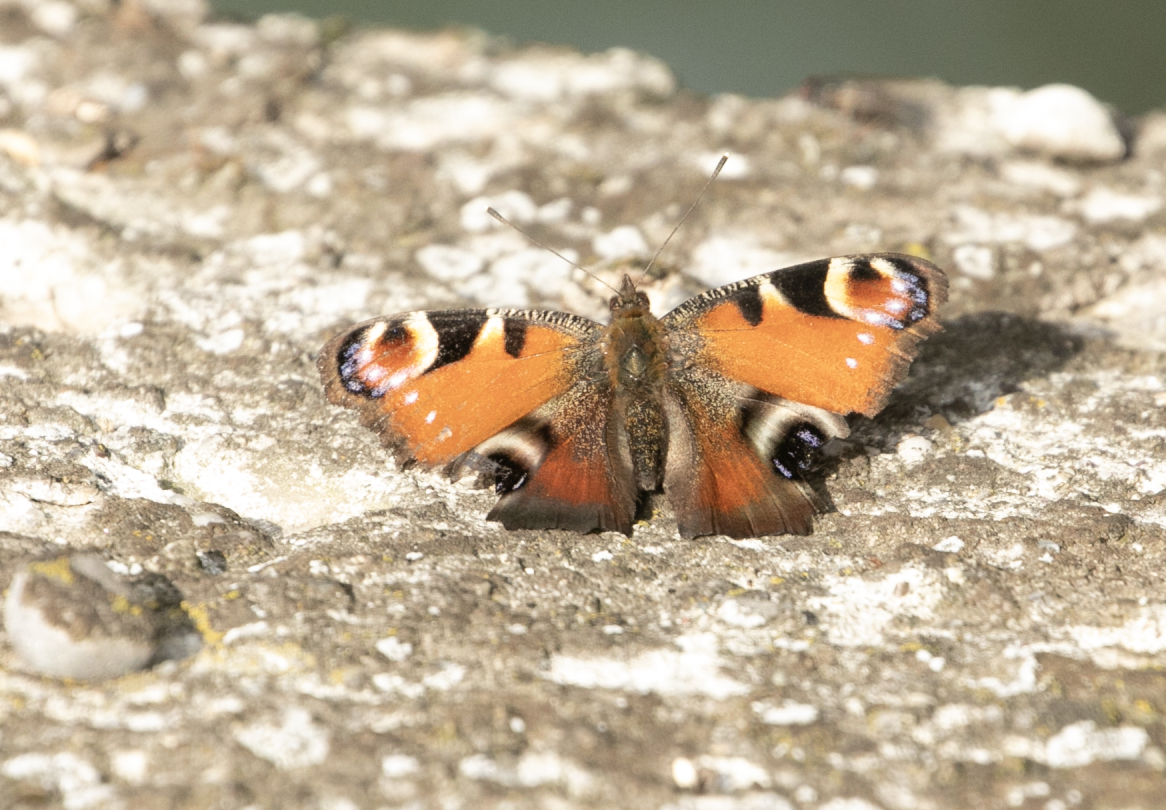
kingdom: Animalia
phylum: Arthropoda
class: Insecta
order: Lepidoptera
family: Nymphalidae
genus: Aglais
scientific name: Aglais io
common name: Peacock
